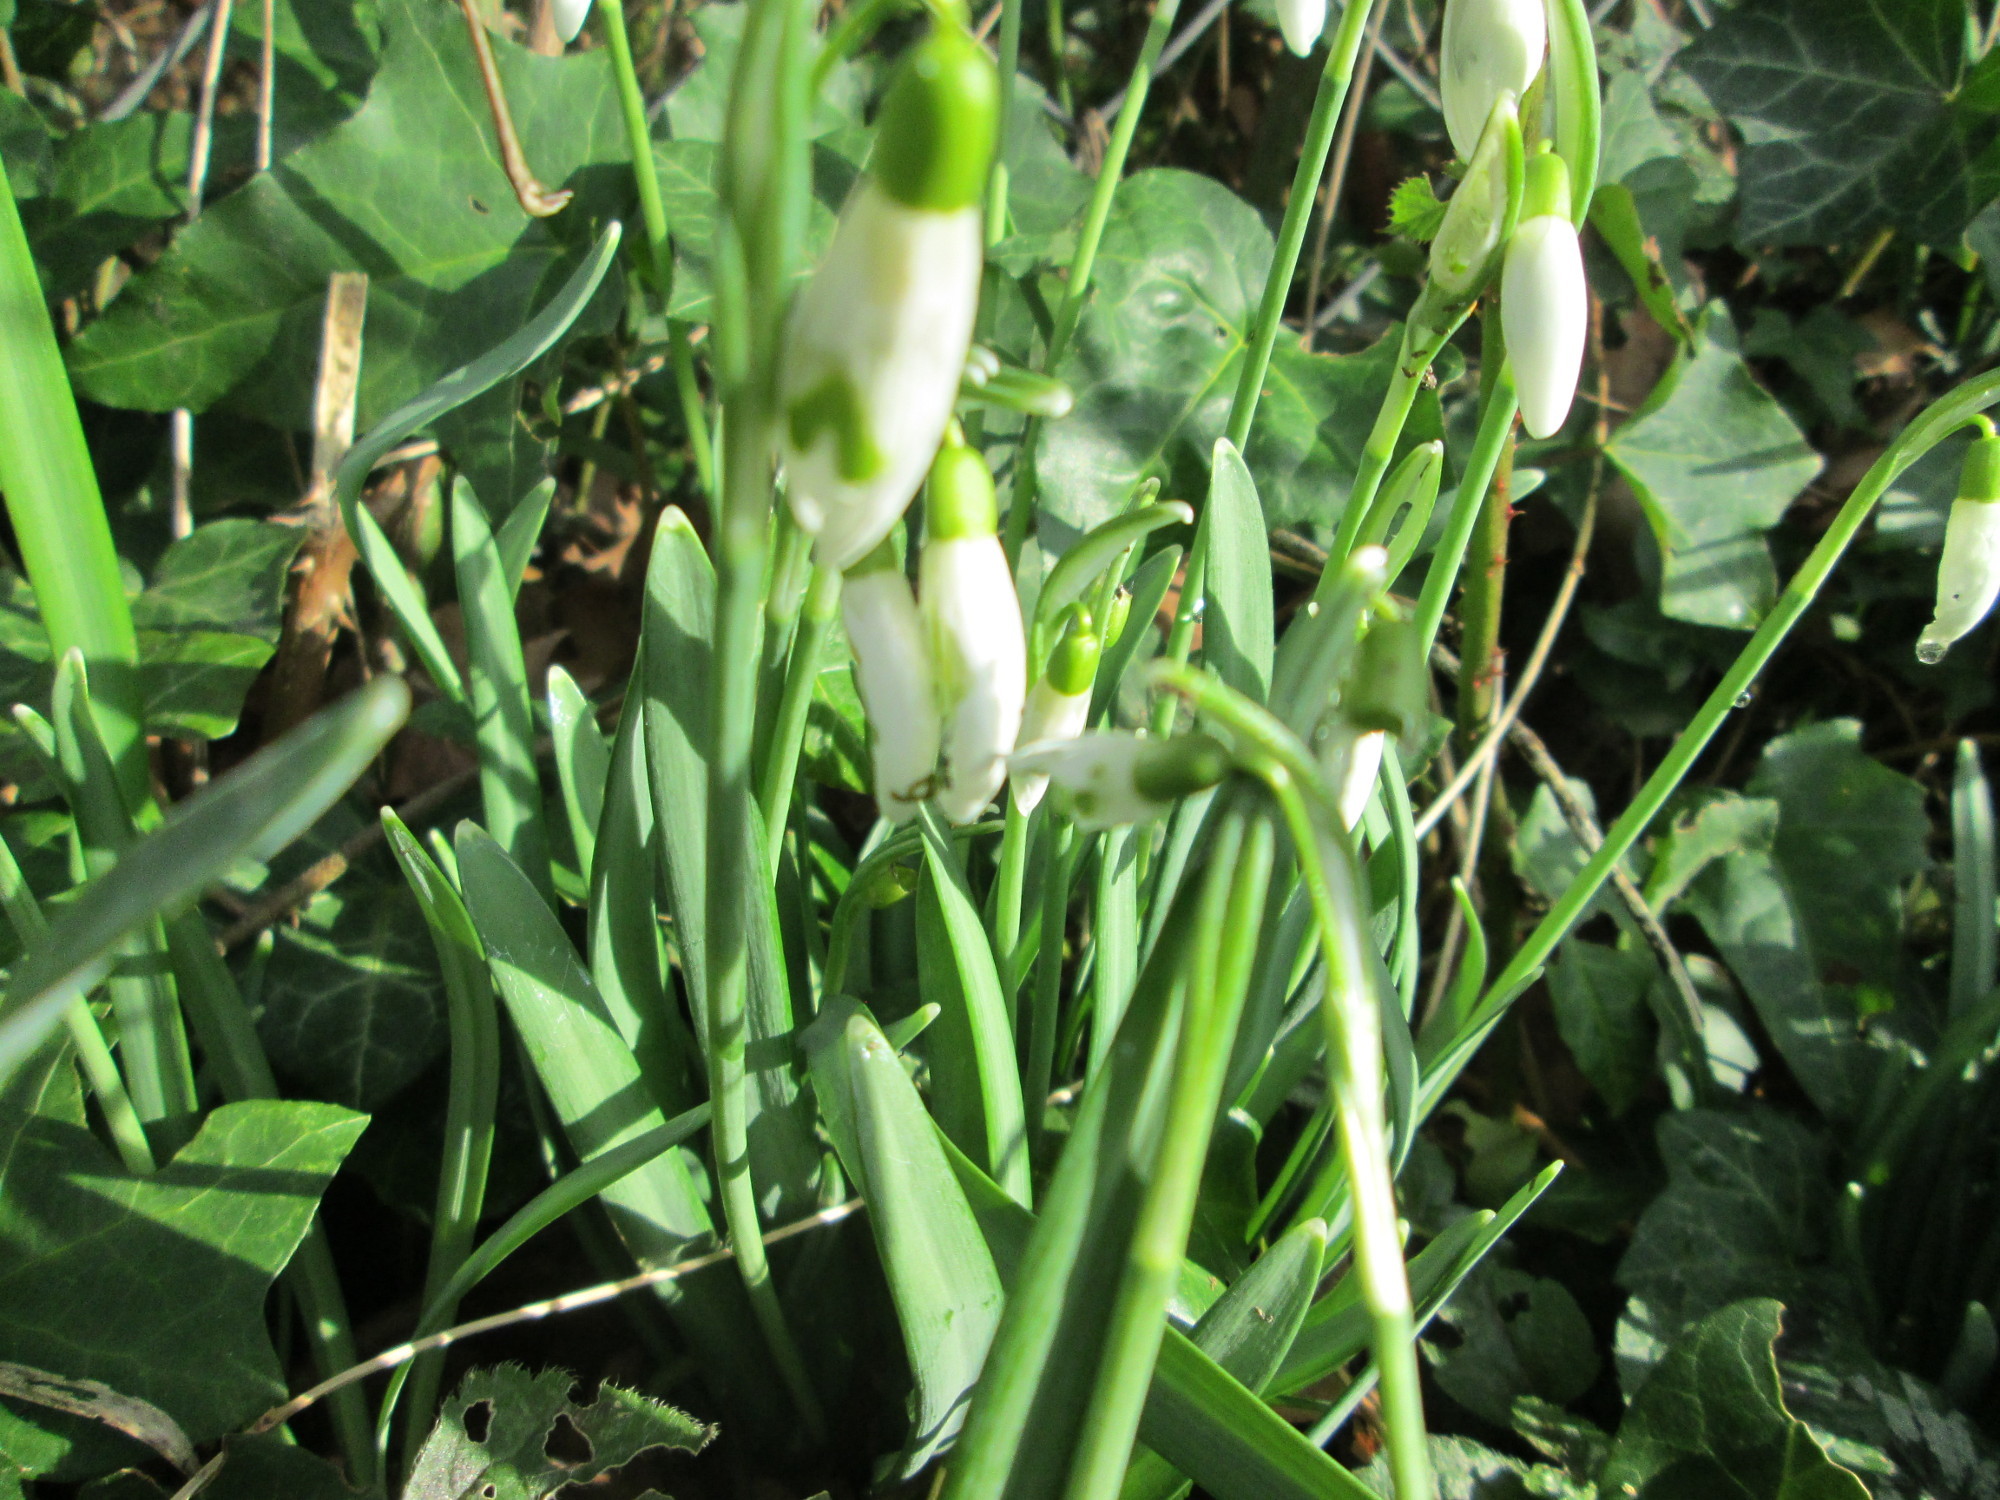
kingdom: Plantae
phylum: Tracheophyta
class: Liliopsida
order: Asparagales
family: Amaryllidaceae
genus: Galanthus
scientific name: Galanthus nivalis
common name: Snowdrop
